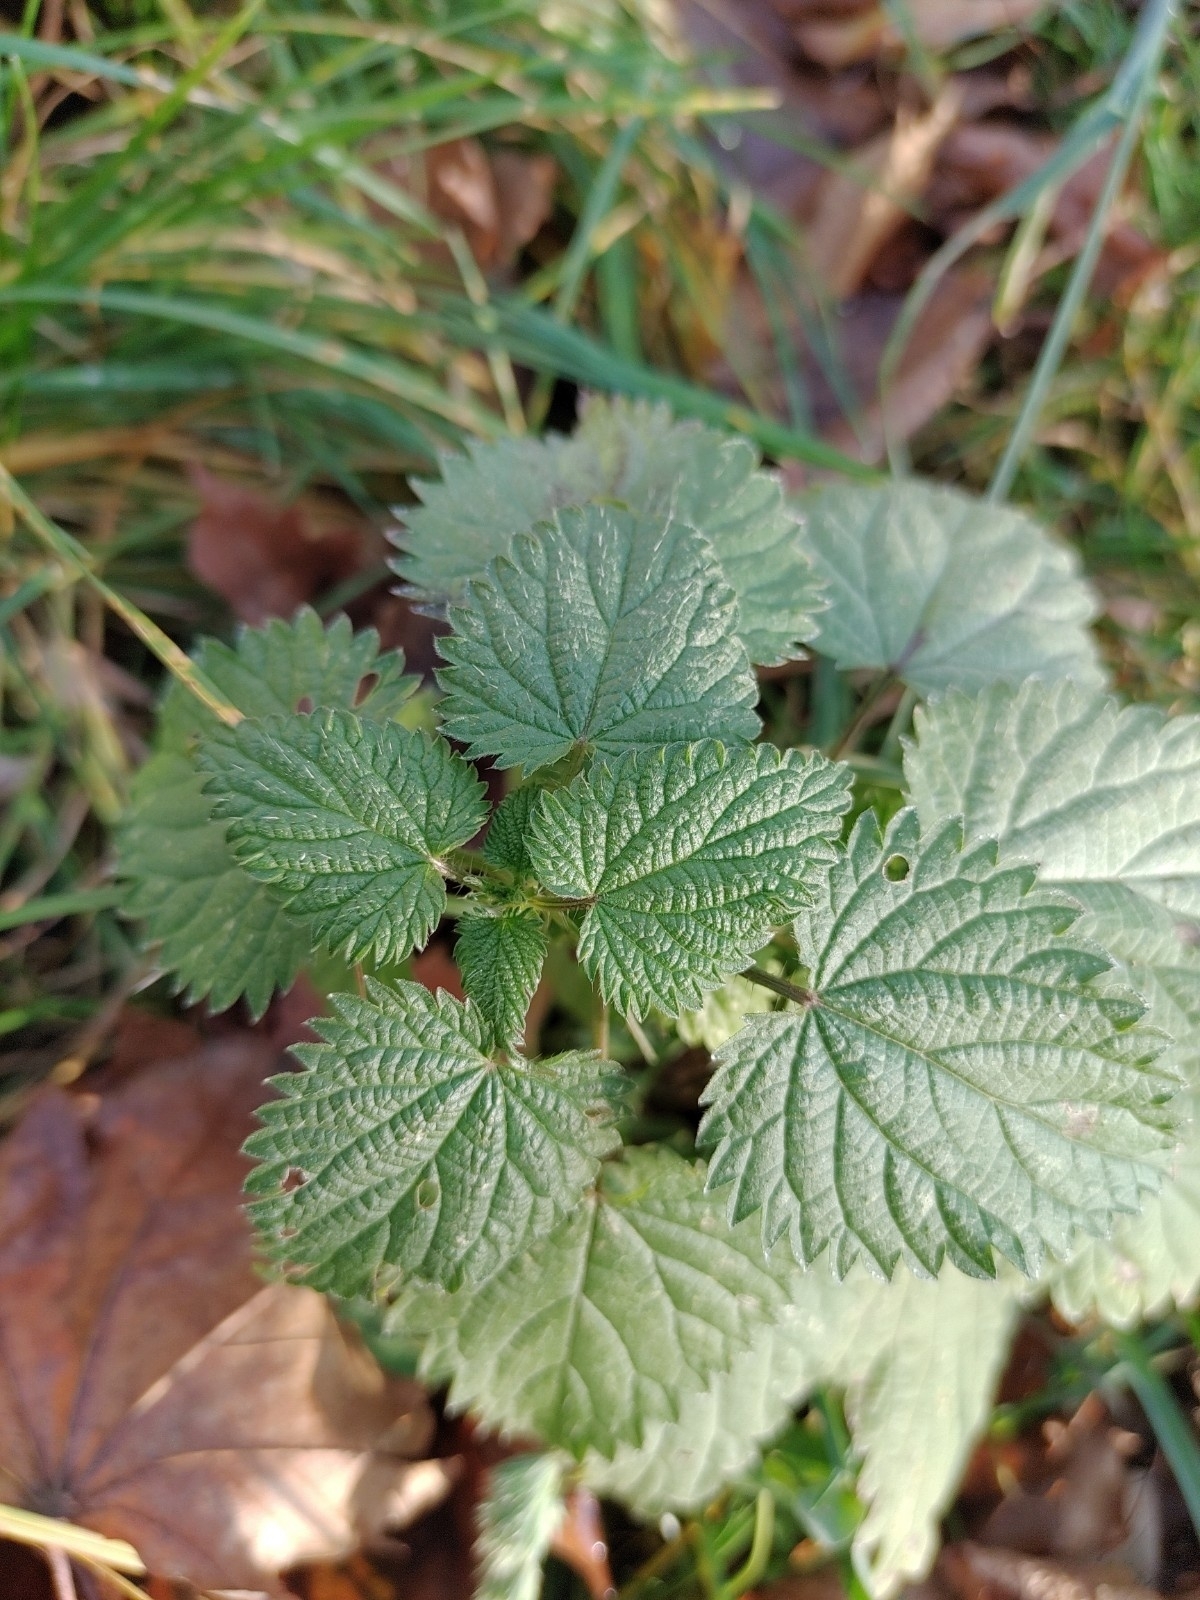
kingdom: Plantae
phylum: Tracheophyta
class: Magnoliopsida
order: Rosales
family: Urticaceae
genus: Urtica
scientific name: Urtica dioica
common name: Common nettle
